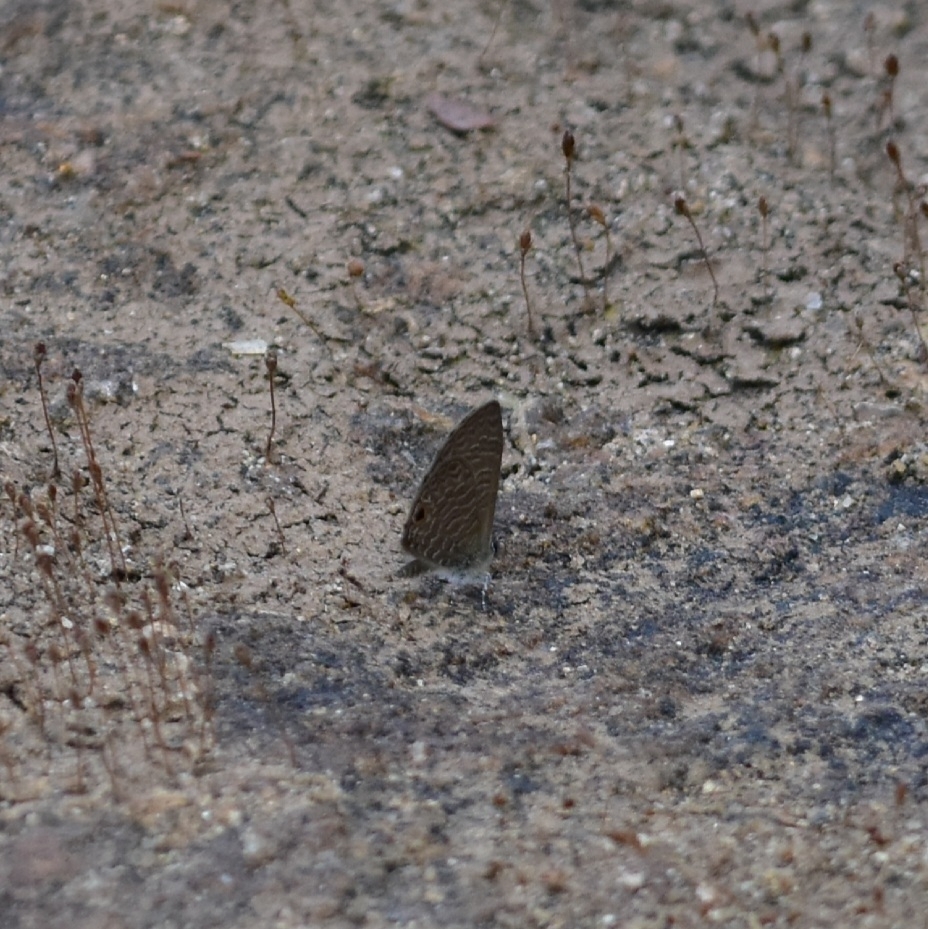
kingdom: Animalia
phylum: Arthropoda
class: Insecta
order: Lepidoptera
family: Lycaenidae
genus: Prosotas
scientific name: Prosotas dubiosa
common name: Tailless lineblue
